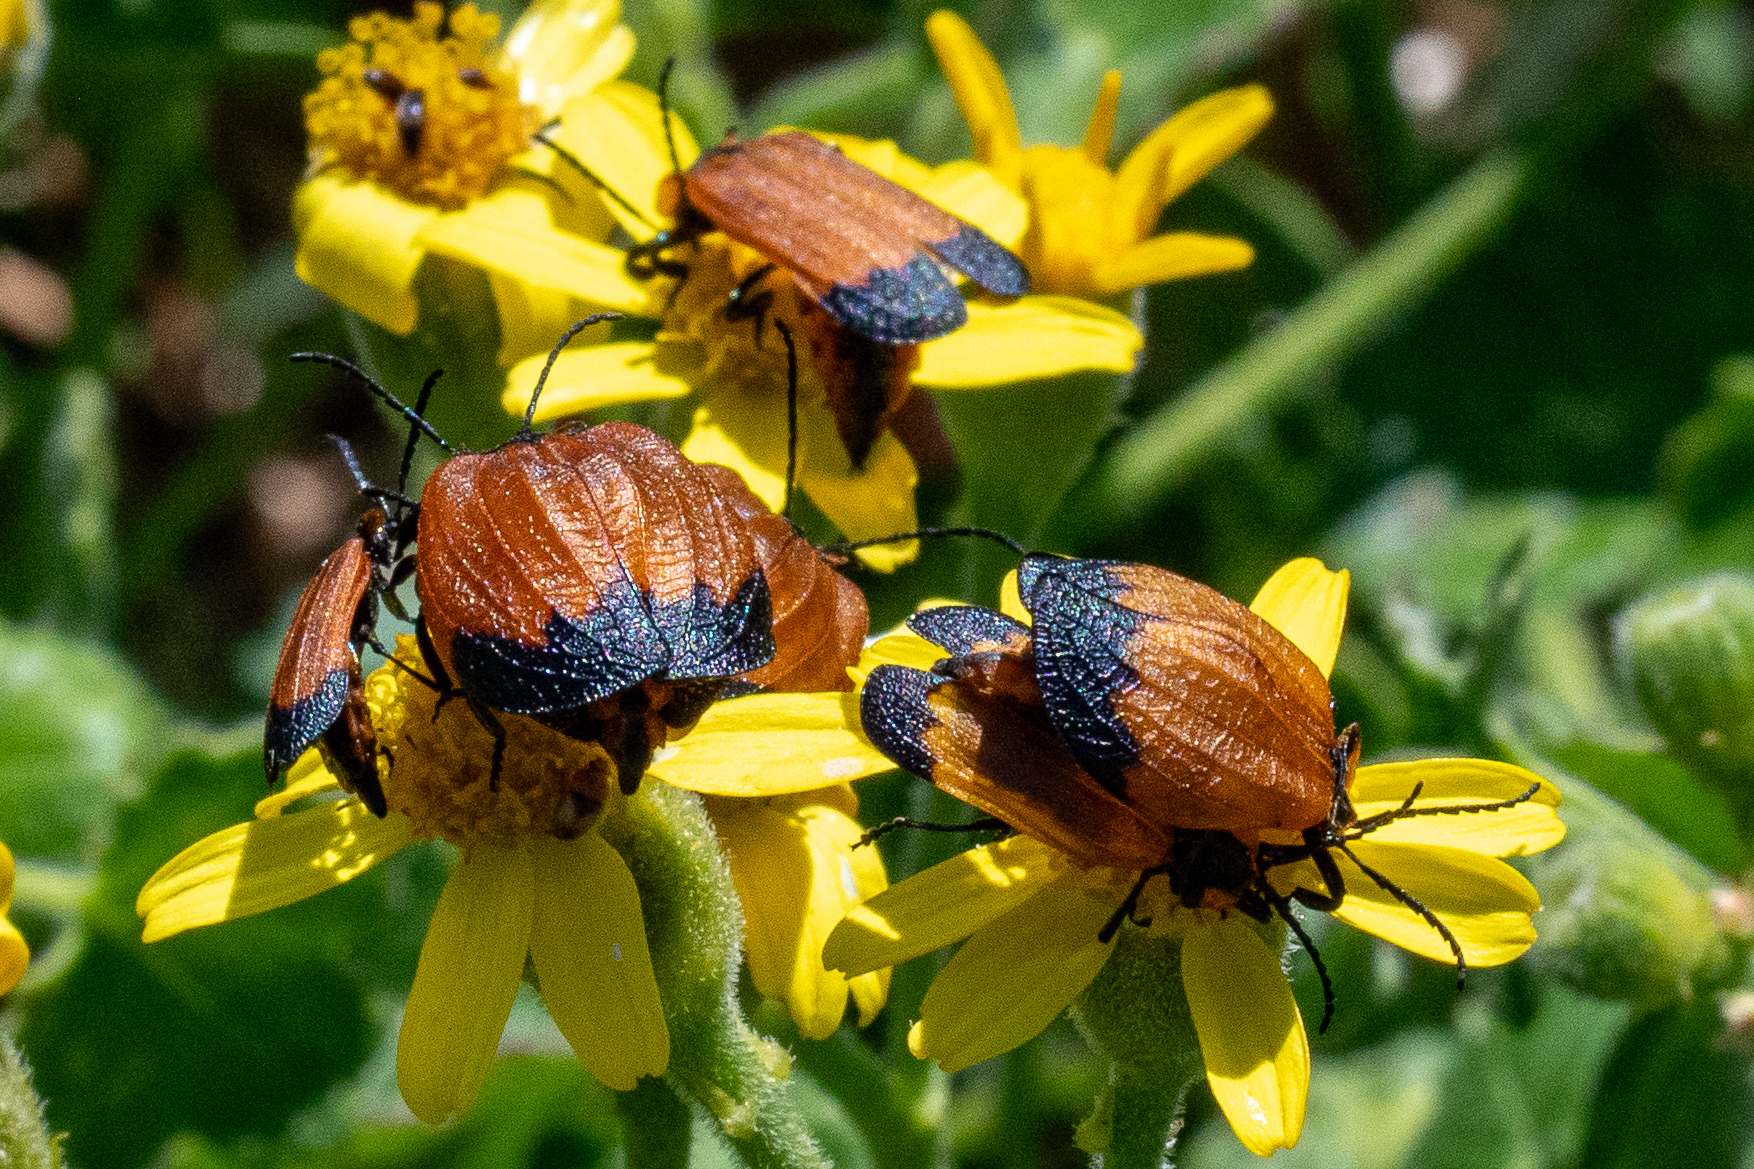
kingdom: Animalia
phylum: Arthropoda
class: Insecta
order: Coleoptera
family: Lycidae
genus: Lycus
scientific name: Lycus
